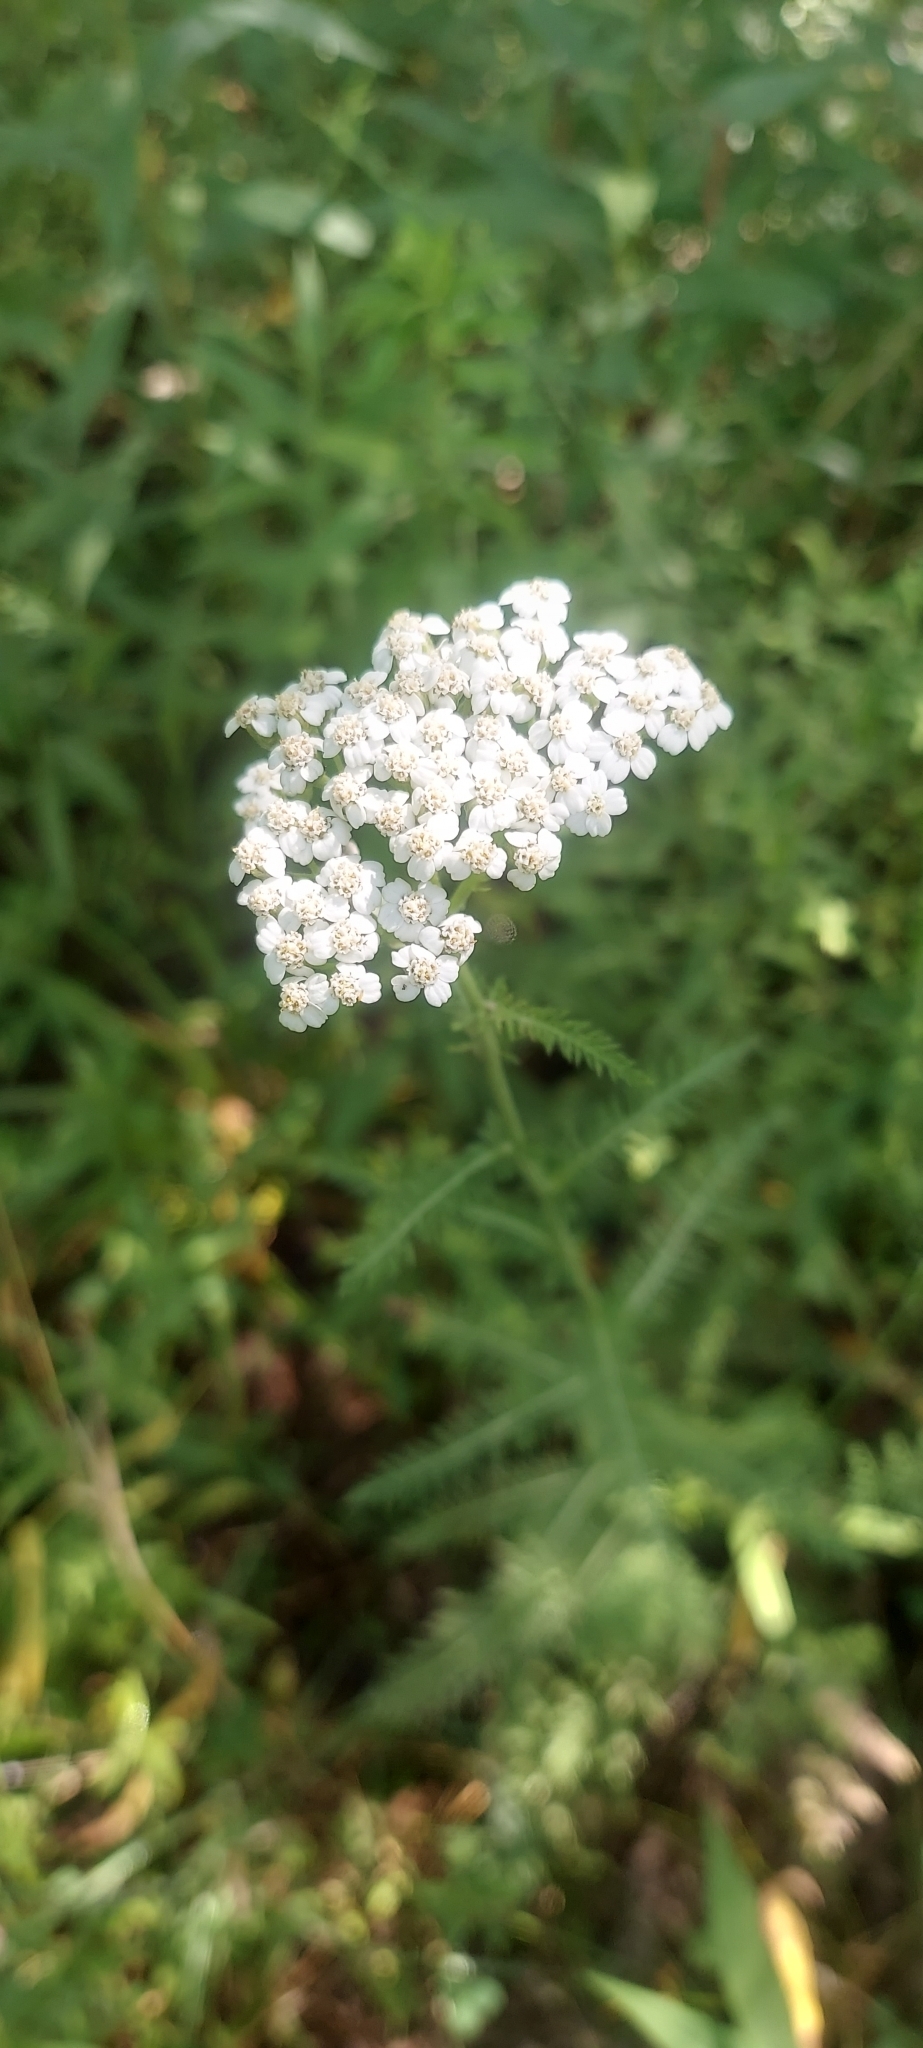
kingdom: Plantae
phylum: Tracheophyta
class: Magnoliopsida
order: Asterales
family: Asteraceae
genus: Achillea
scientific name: Achillea millefolium
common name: Yarrow
